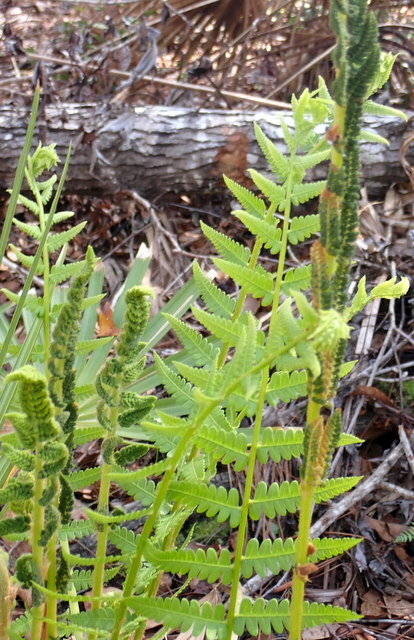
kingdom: Plantae
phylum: Tracheophyta
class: Polypodiopsida
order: Osmundales
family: Osmundaceae
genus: Osmundastrum
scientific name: Osmundastrum cinnamomeum
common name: Cinnamon fern
